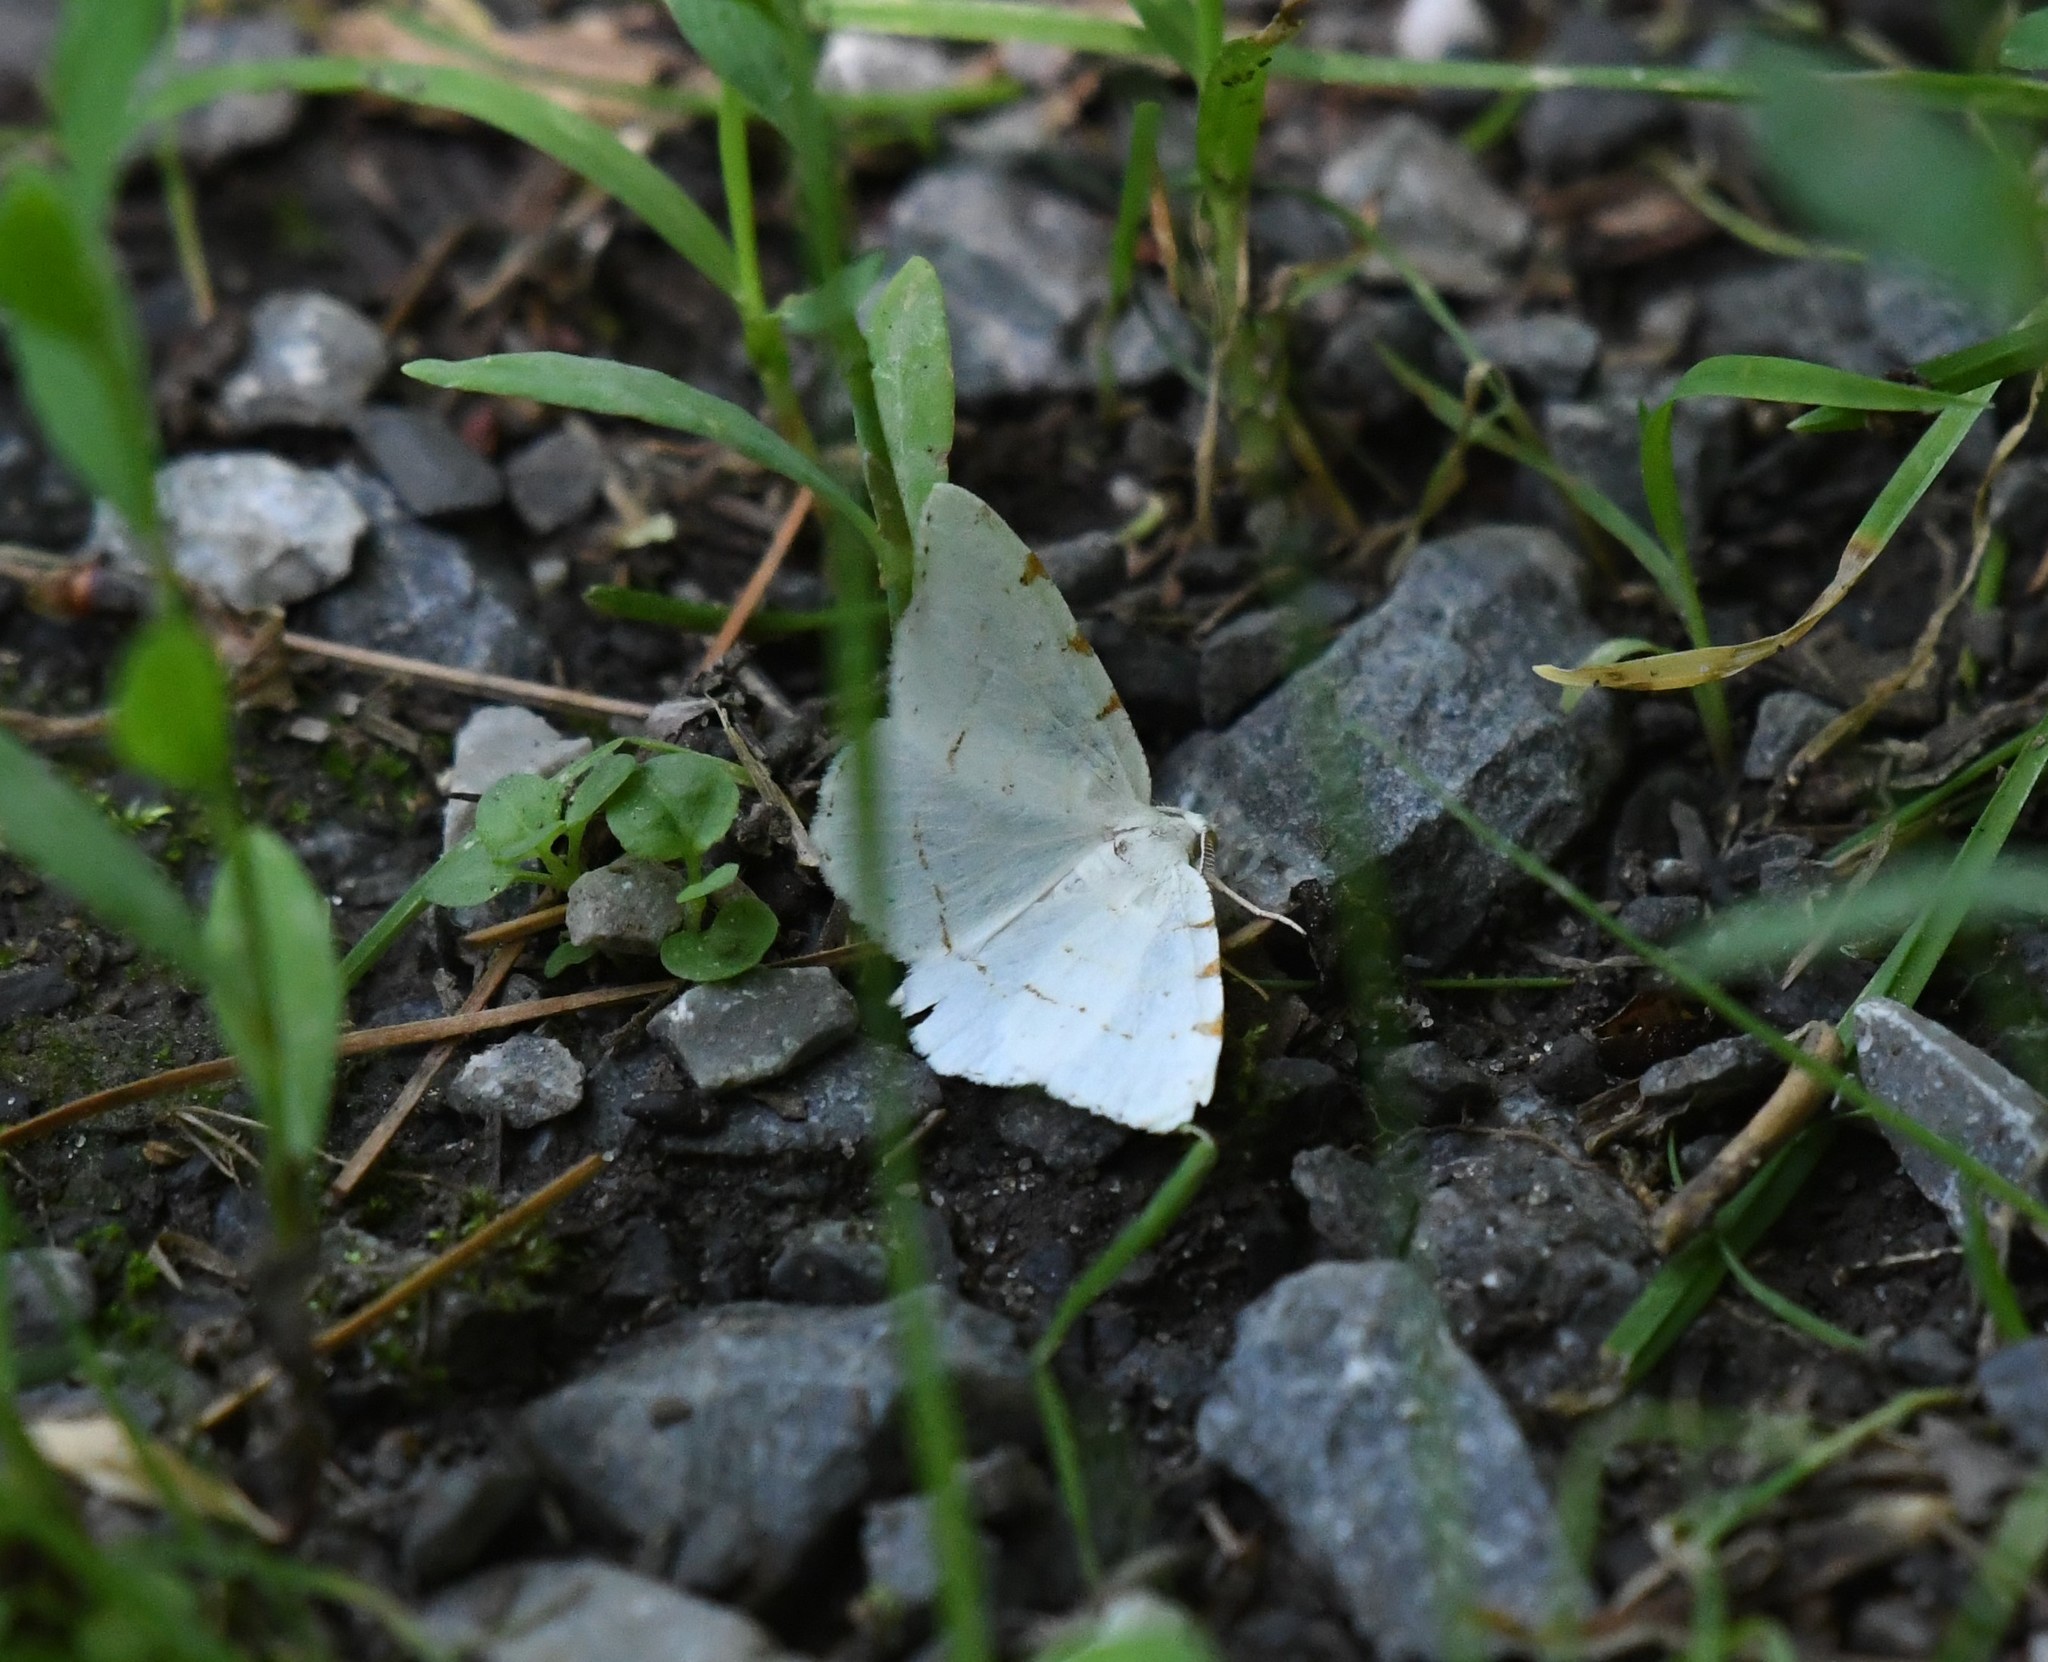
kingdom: Animalia
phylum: Arthropoda
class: Insecta
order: Lepidoptera
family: Geometridae
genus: Macaria
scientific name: Macaria pustularia
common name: Lesser maple spanworm moth
